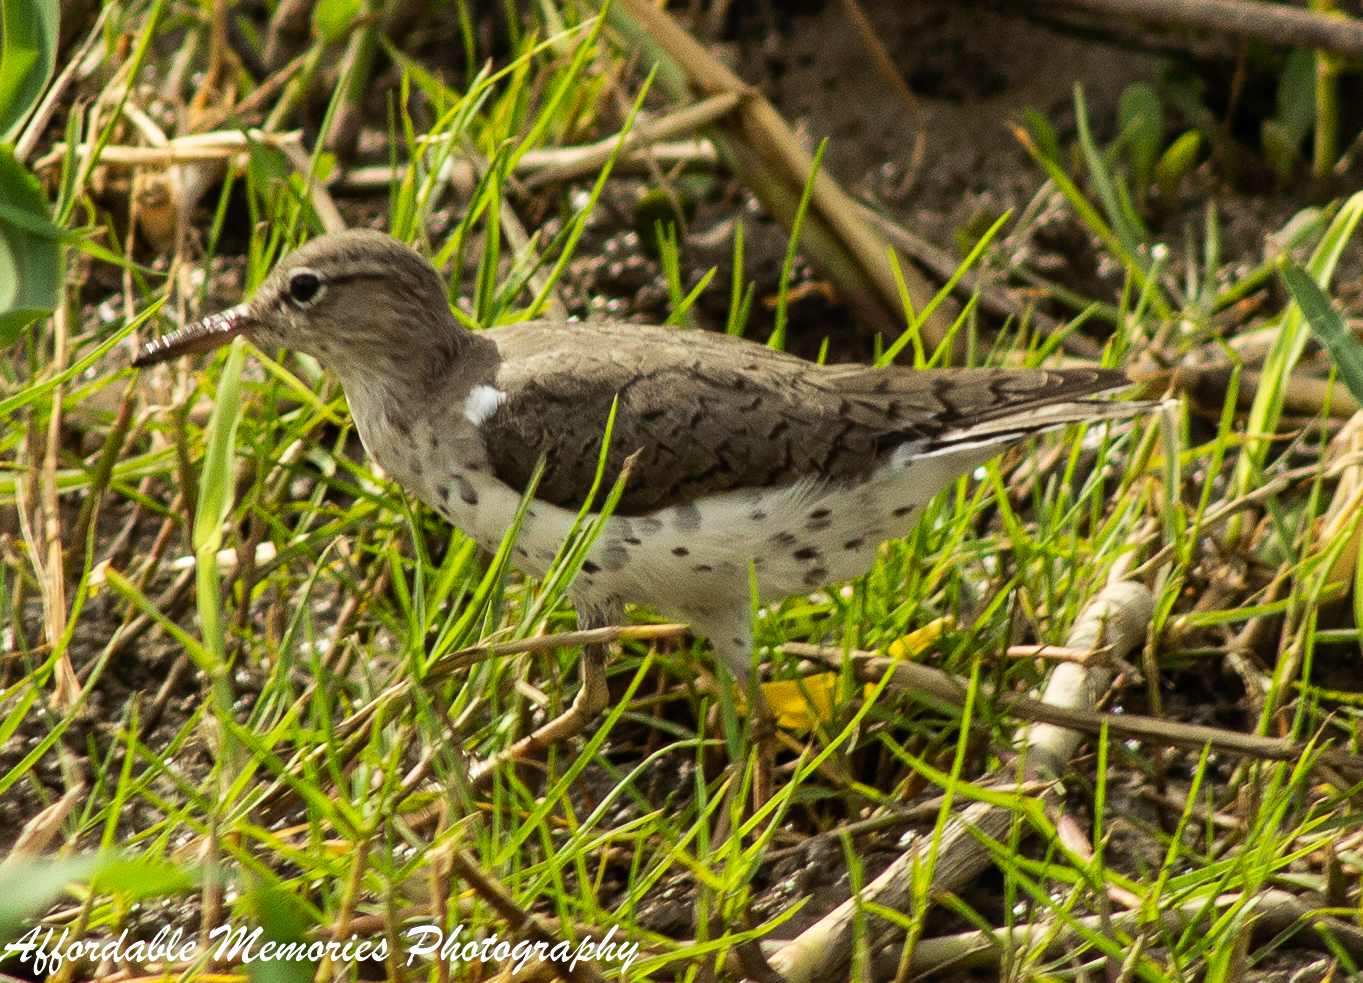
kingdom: Animalia
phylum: Chordata
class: Aves
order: Charadriiformes
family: Scolopacidae
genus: Actitis
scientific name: Actitis macularius
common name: Spotted sandpiper
